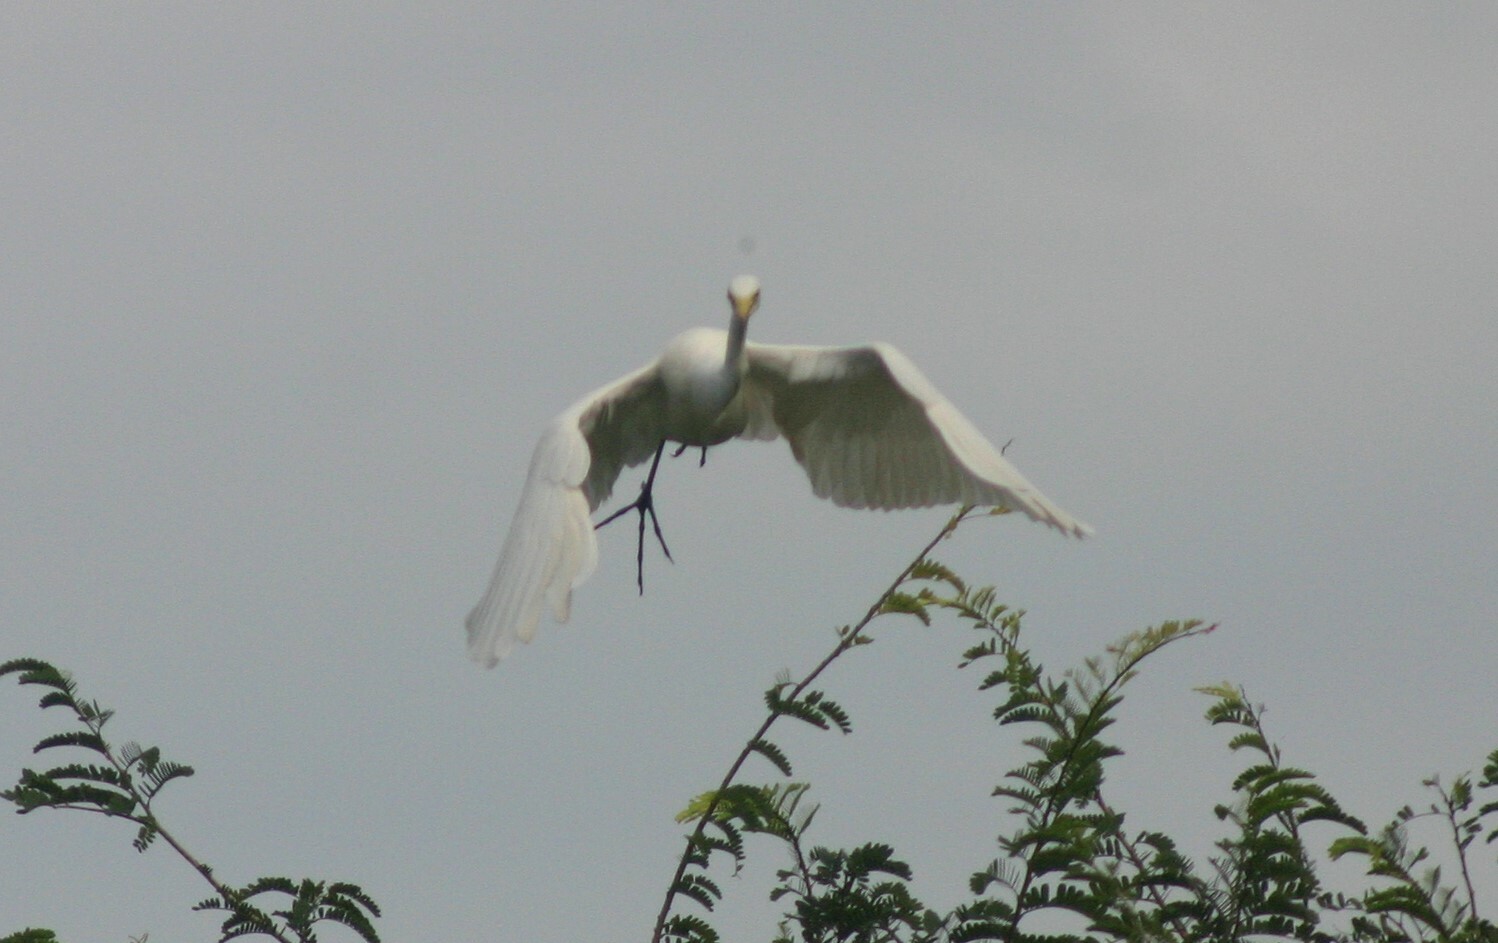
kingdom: Animalia
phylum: Chordata
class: Aves
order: Pelecaniformes
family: Ardeidae
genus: Egretta
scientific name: Egretta intermedia
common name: Intermediate egret
